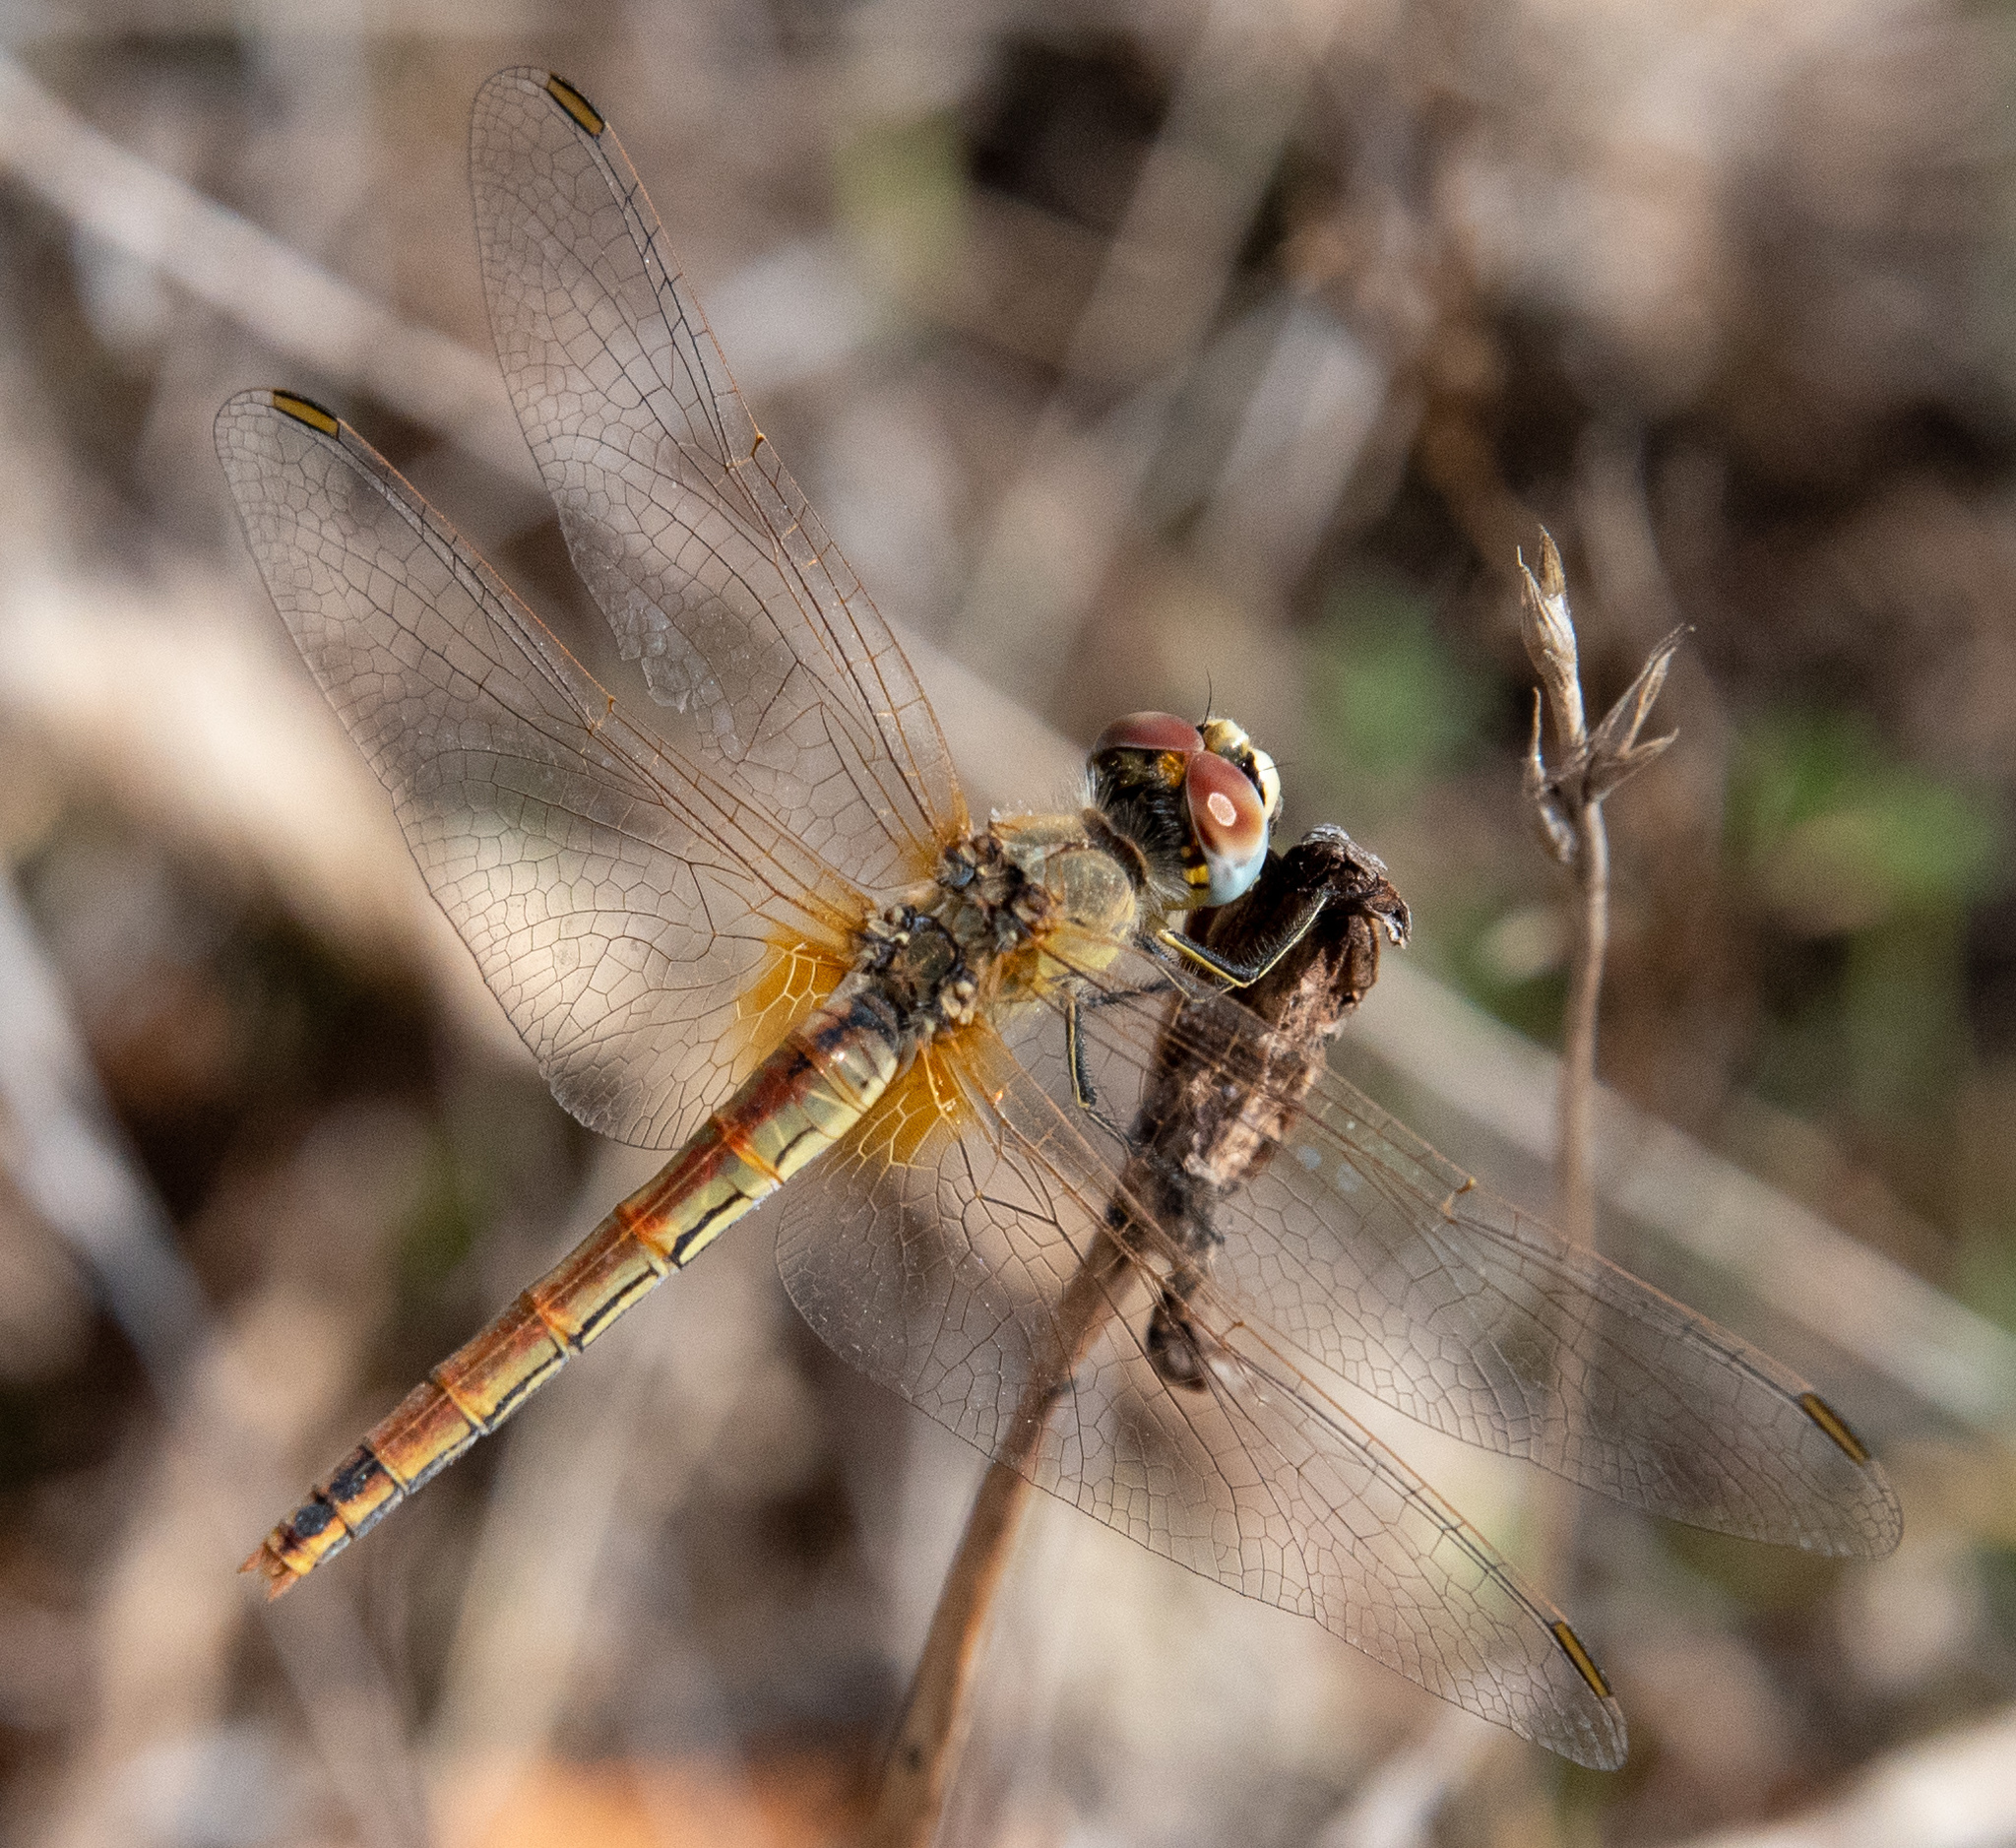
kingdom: Animalia
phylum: Arthropoda
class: Insecta
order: Odonata
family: Libellulidae
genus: Sympetrum
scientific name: Sympetrum fonscolombii
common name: Red-veined darter
